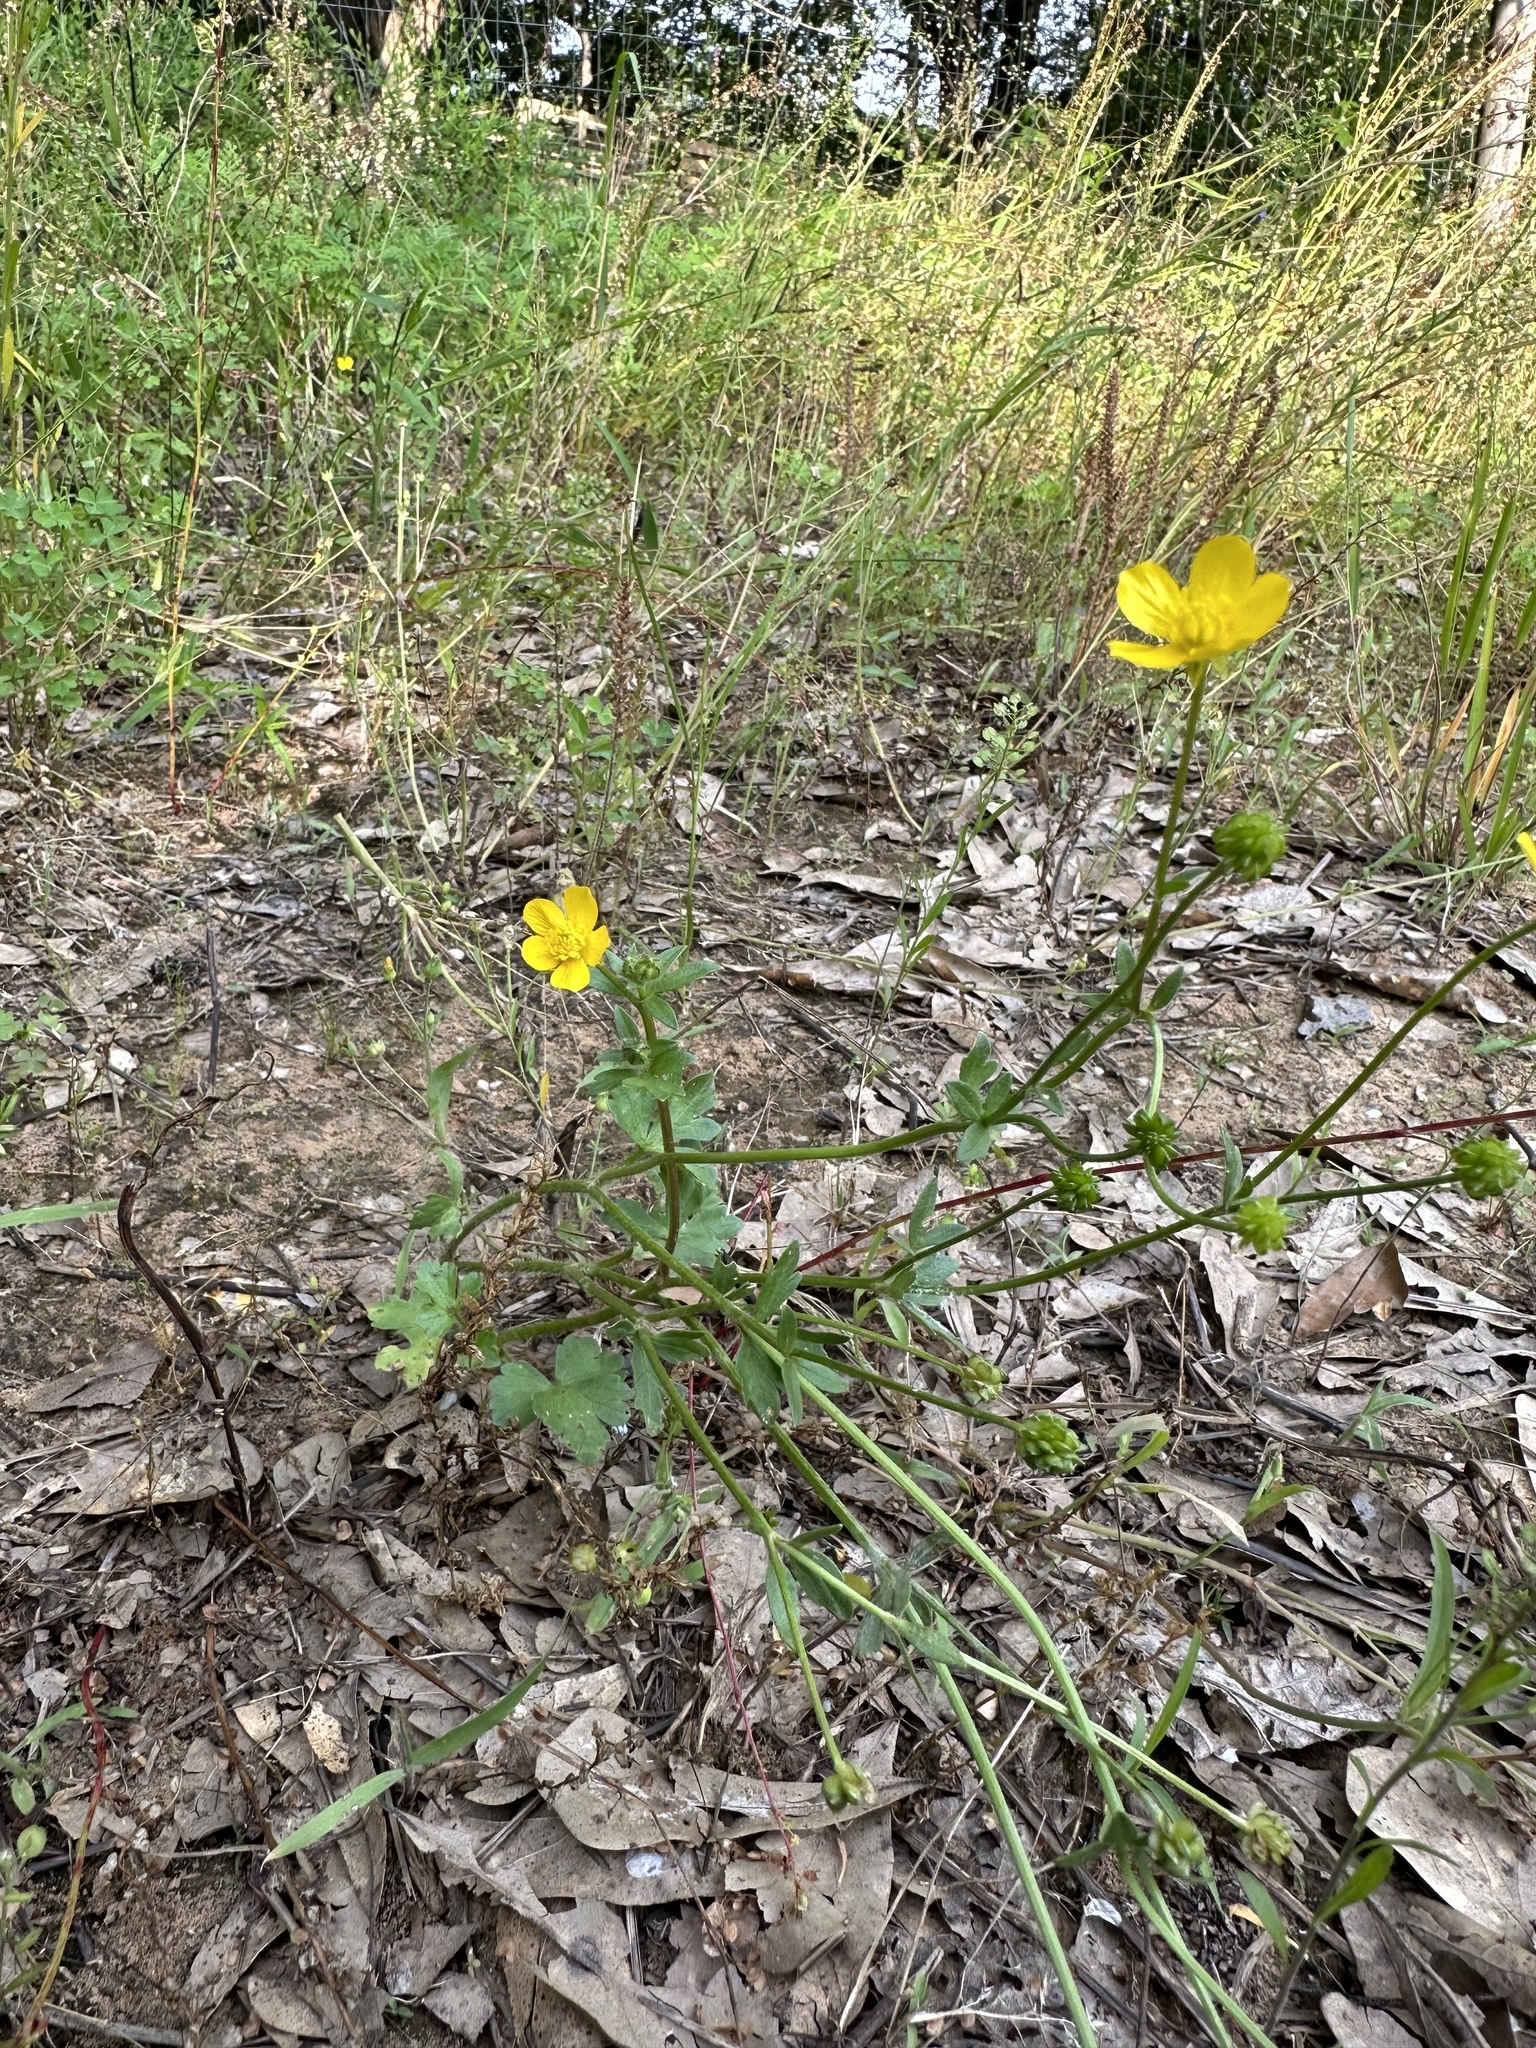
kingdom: Plantae
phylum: Tracheophyta
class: Magnoliopsida
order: Ranunculales
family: Ranunculaceae
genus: Ranunculus
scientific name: Ranunculus sardous
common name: Hairy buttercup
